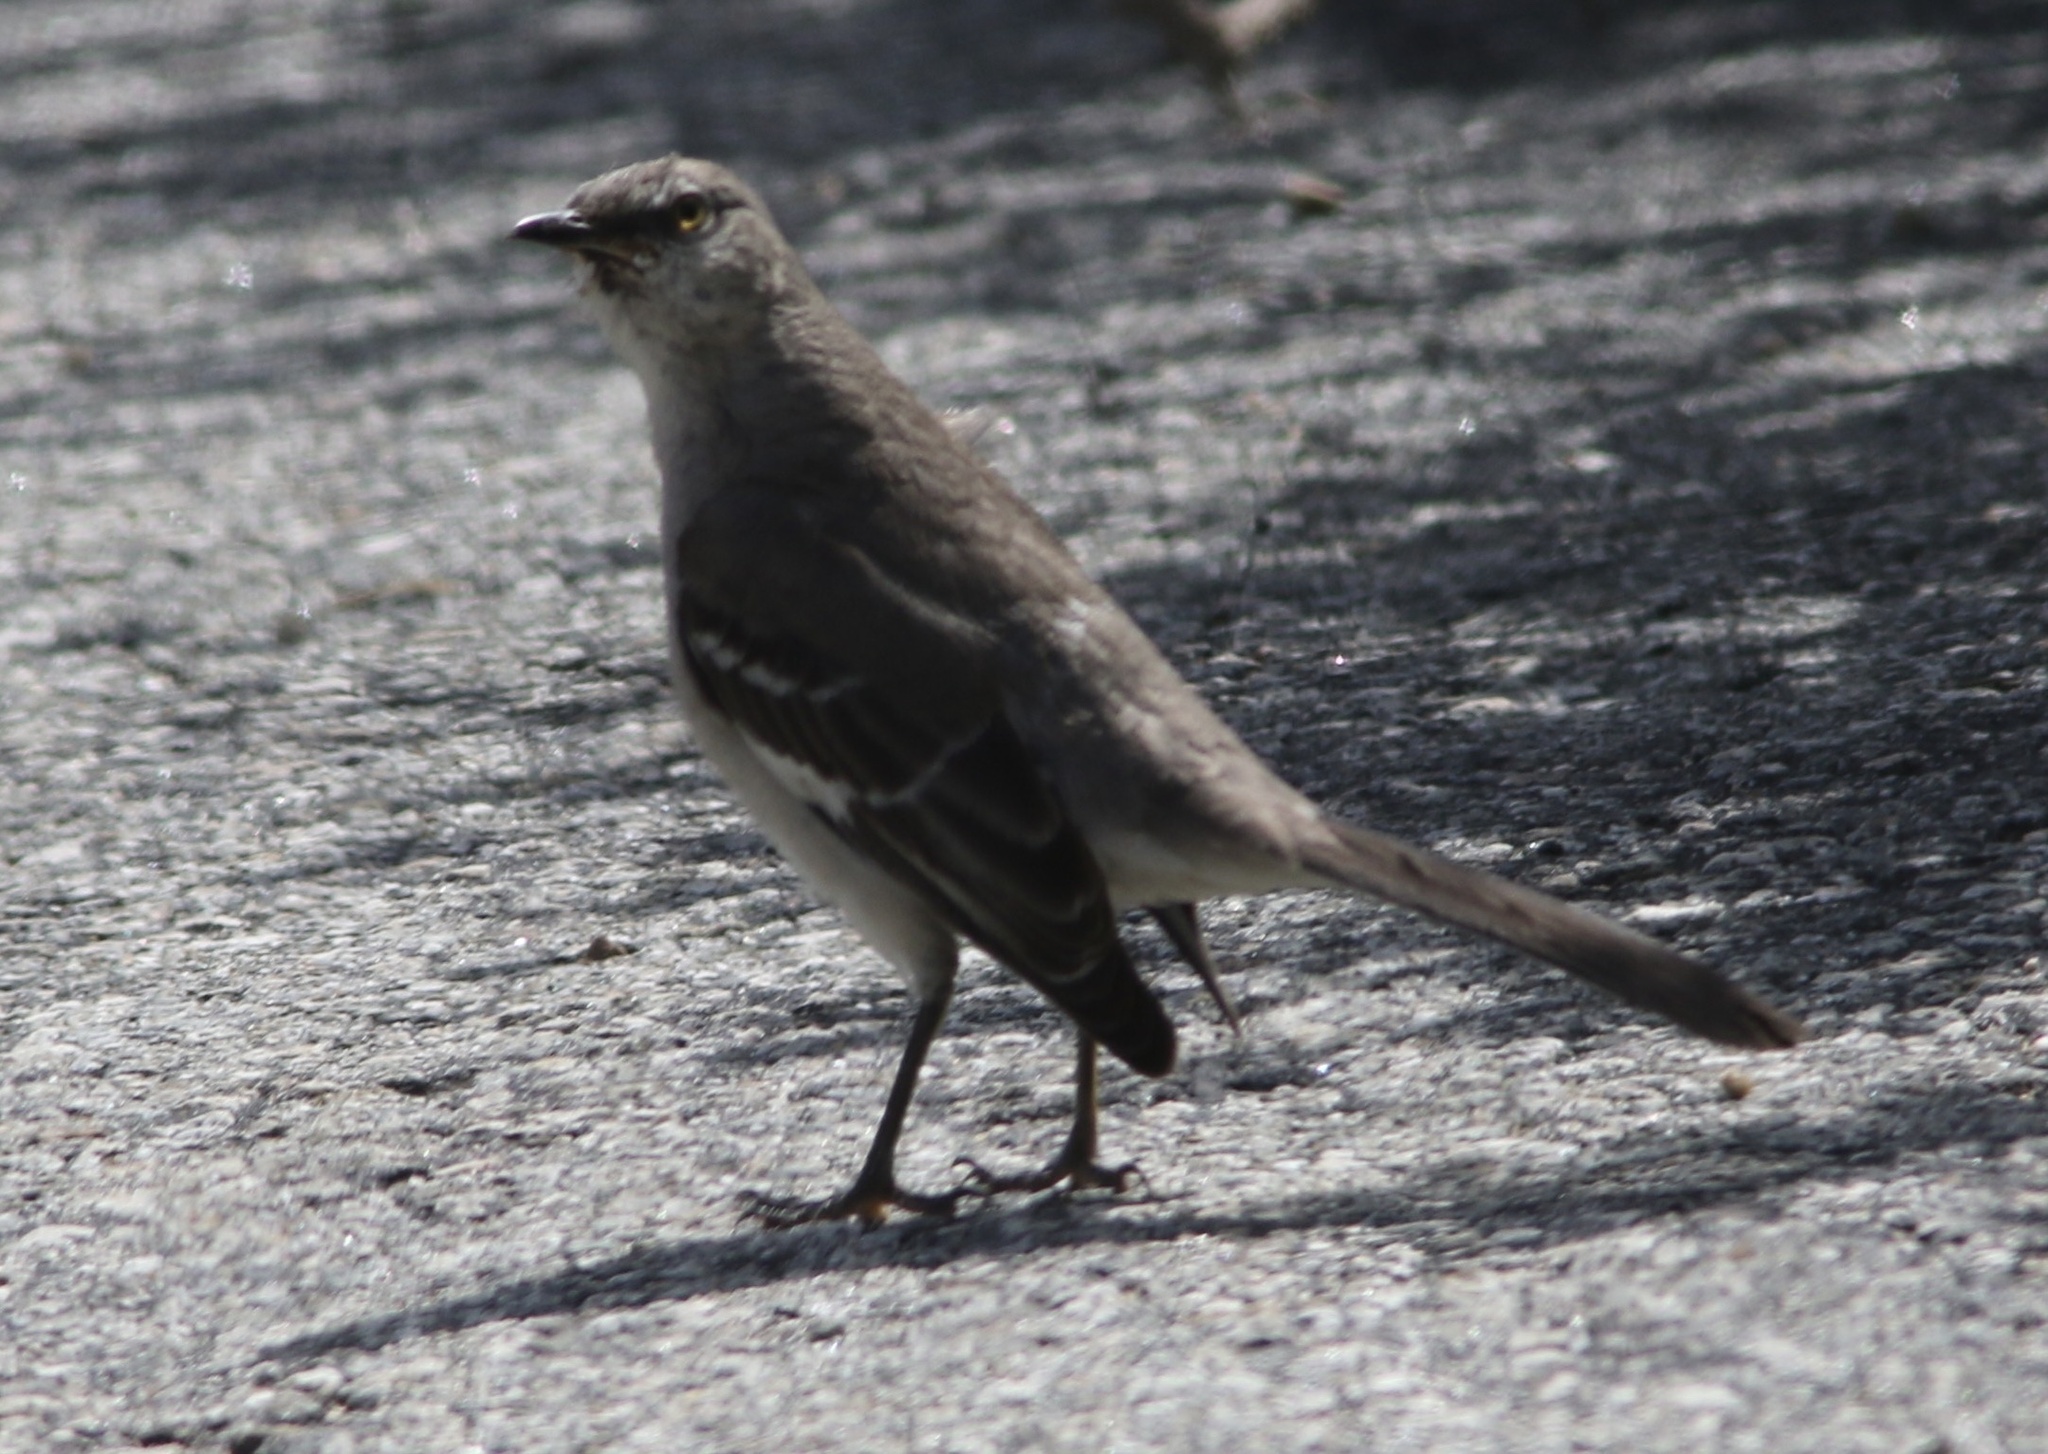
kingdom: Animalia
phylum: Chordata
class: Aves
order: Passeriformes
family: Mimidae
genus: Mimus
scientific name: Mimus polyglottos
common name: Northern mockingbird
